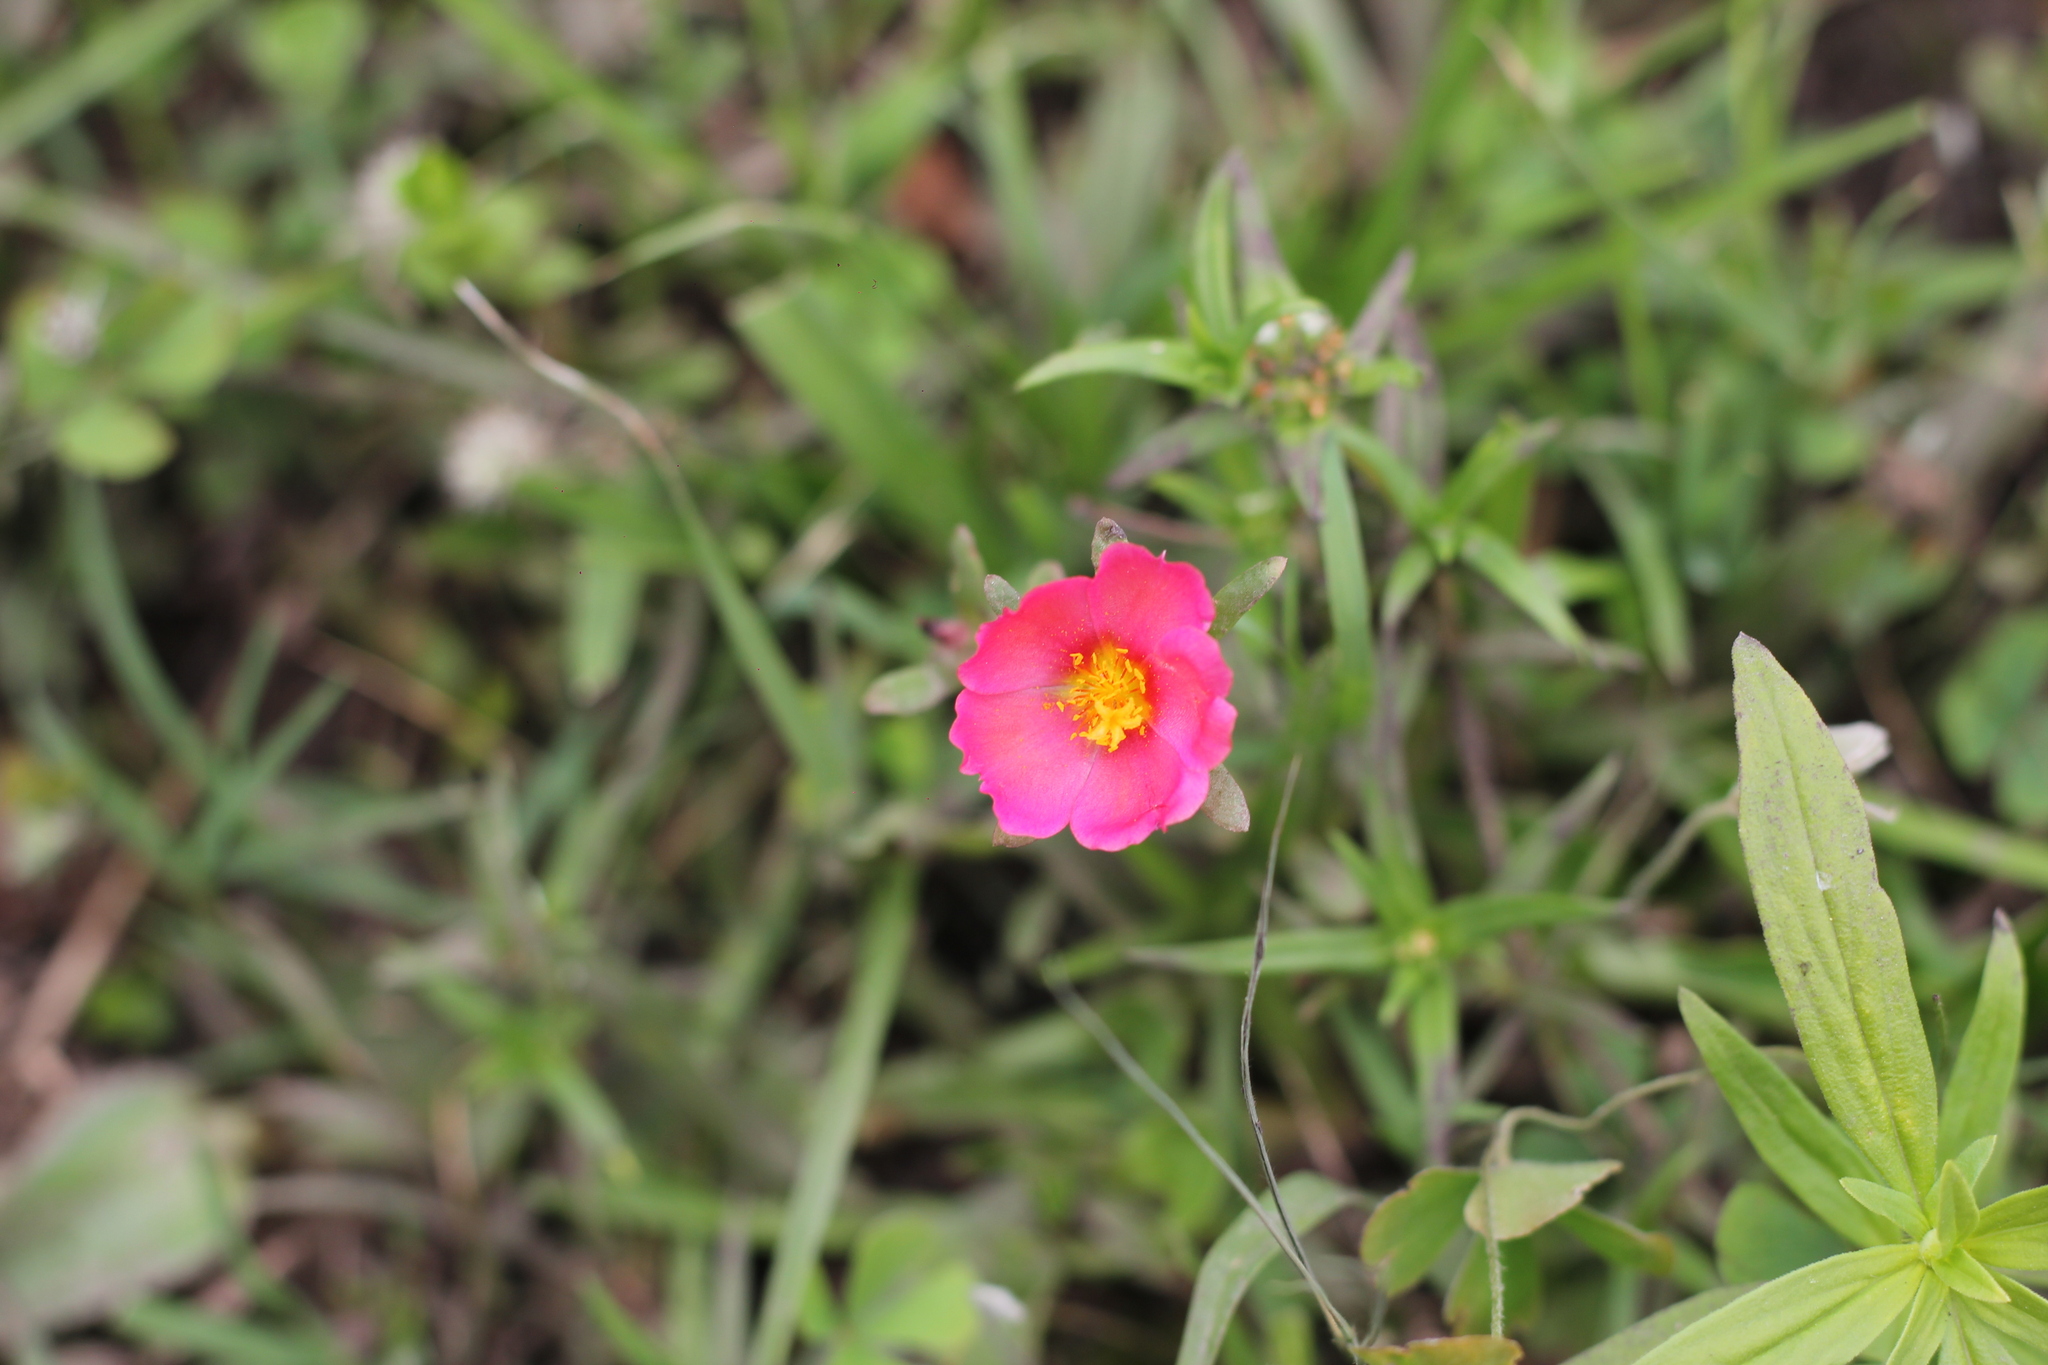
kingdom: Plantae
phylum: Tracheophyta
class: Magnoliopsida
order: Caryophyllales
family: Portulacaceae
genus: Portulaca
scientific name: Portulaca cryptopetala
